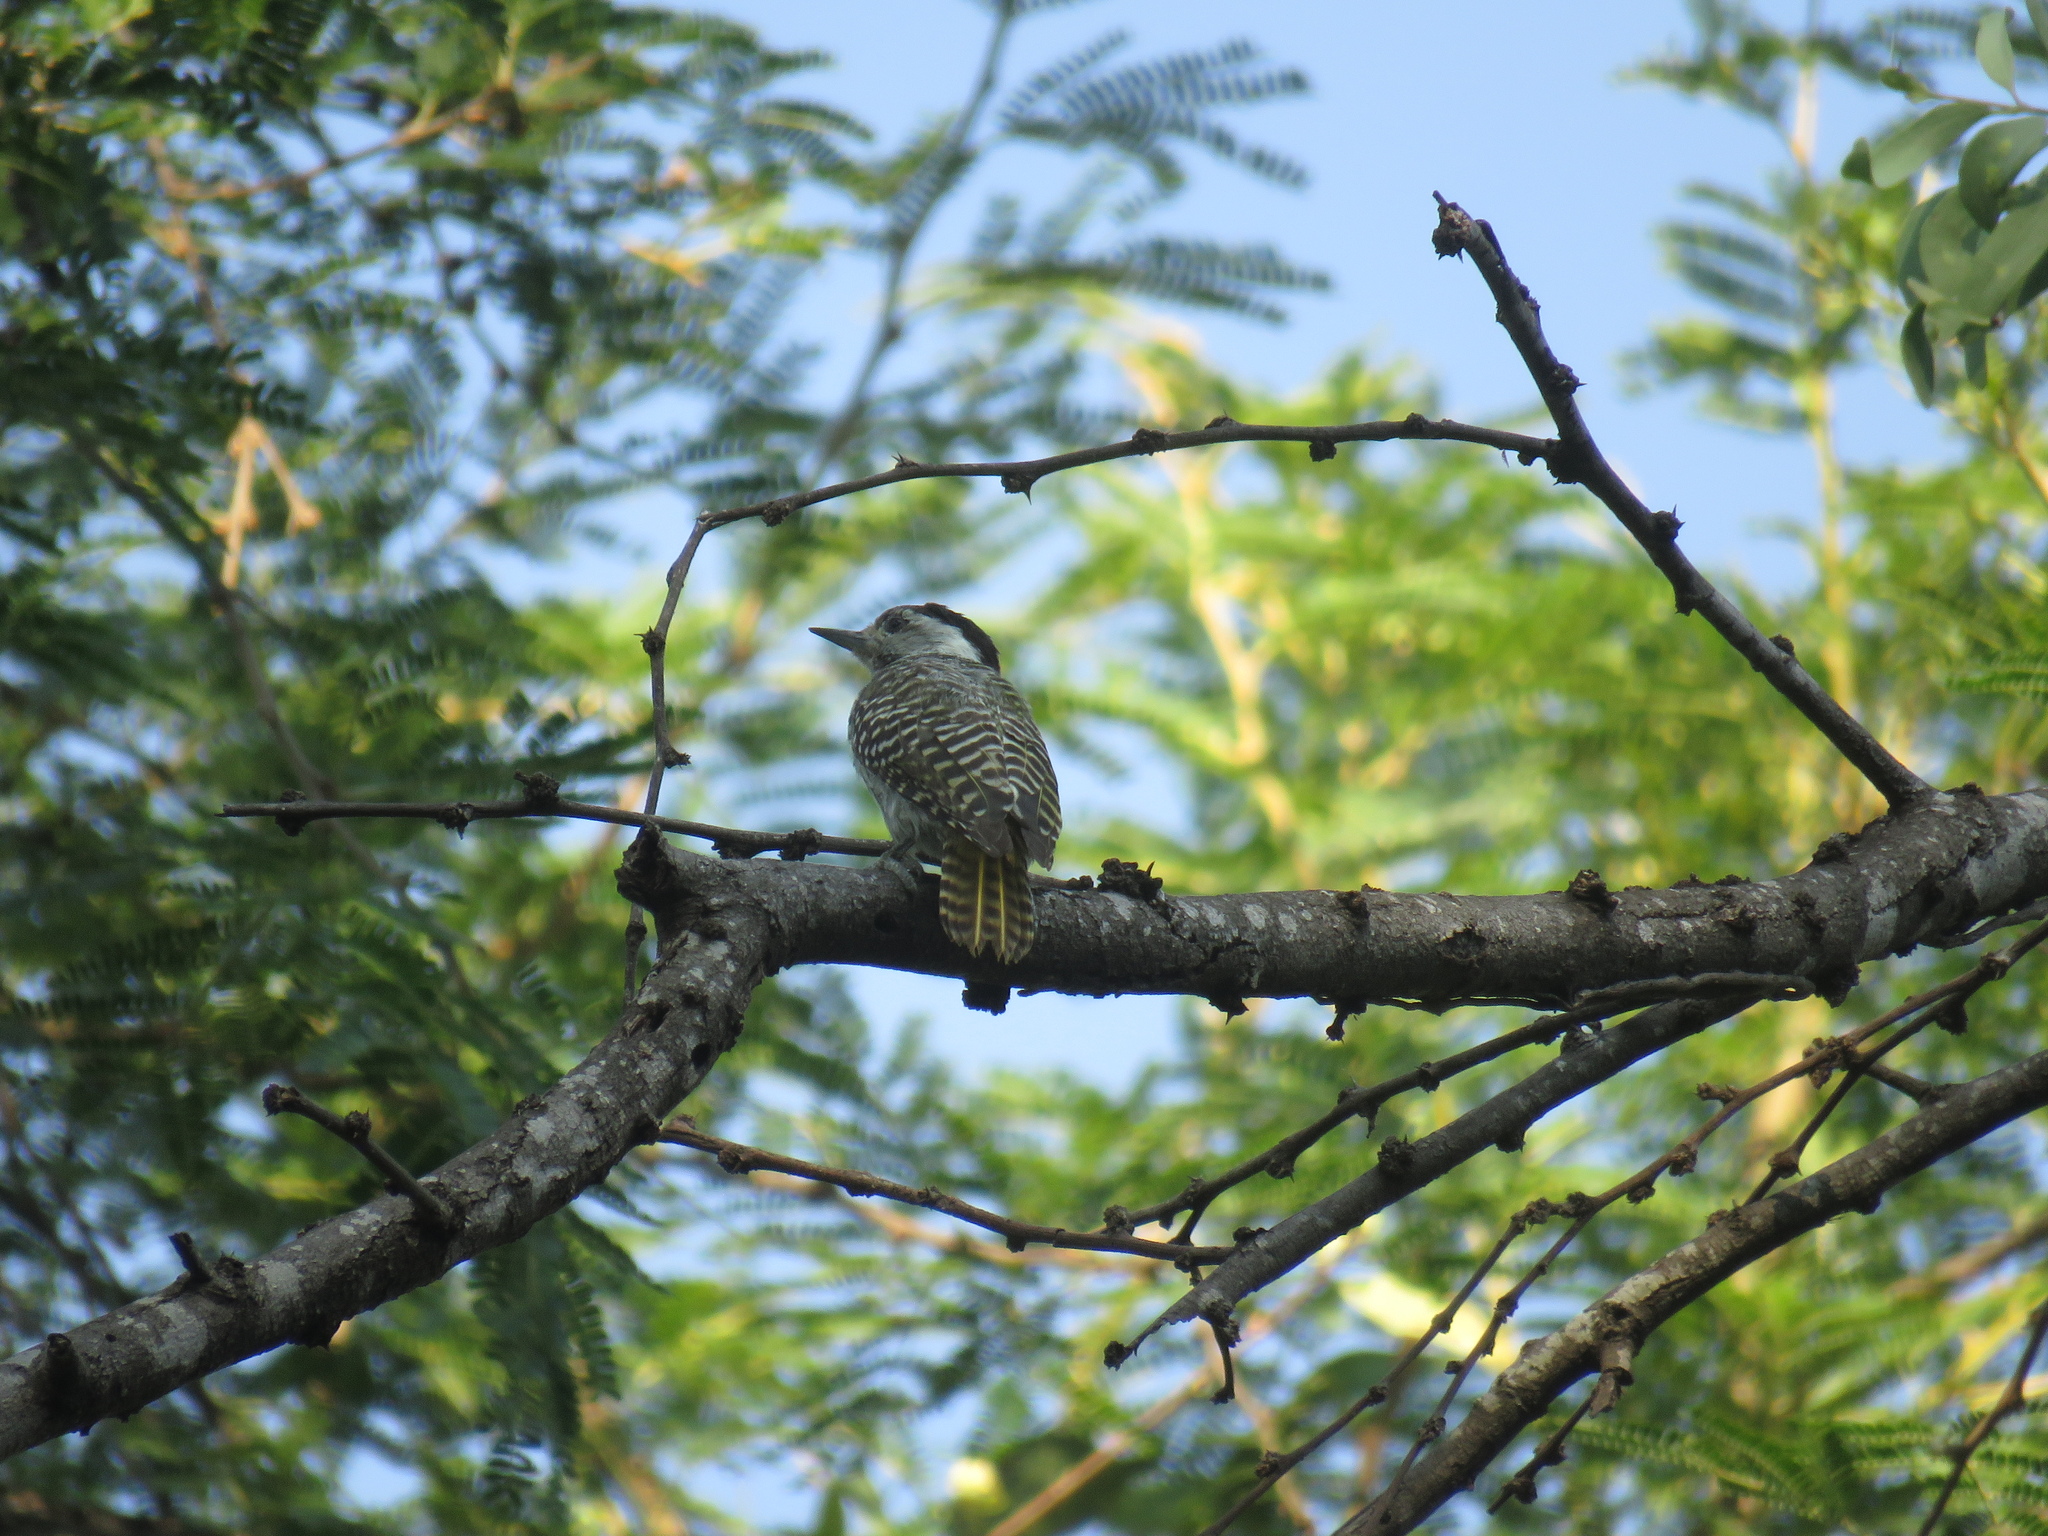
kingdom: Animalia
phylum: Chordata
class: Aves
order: Piciformes
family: Picidae
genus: Dendropicos
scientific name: Dendropicos fuscescens
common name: Cardinal woodpecker
